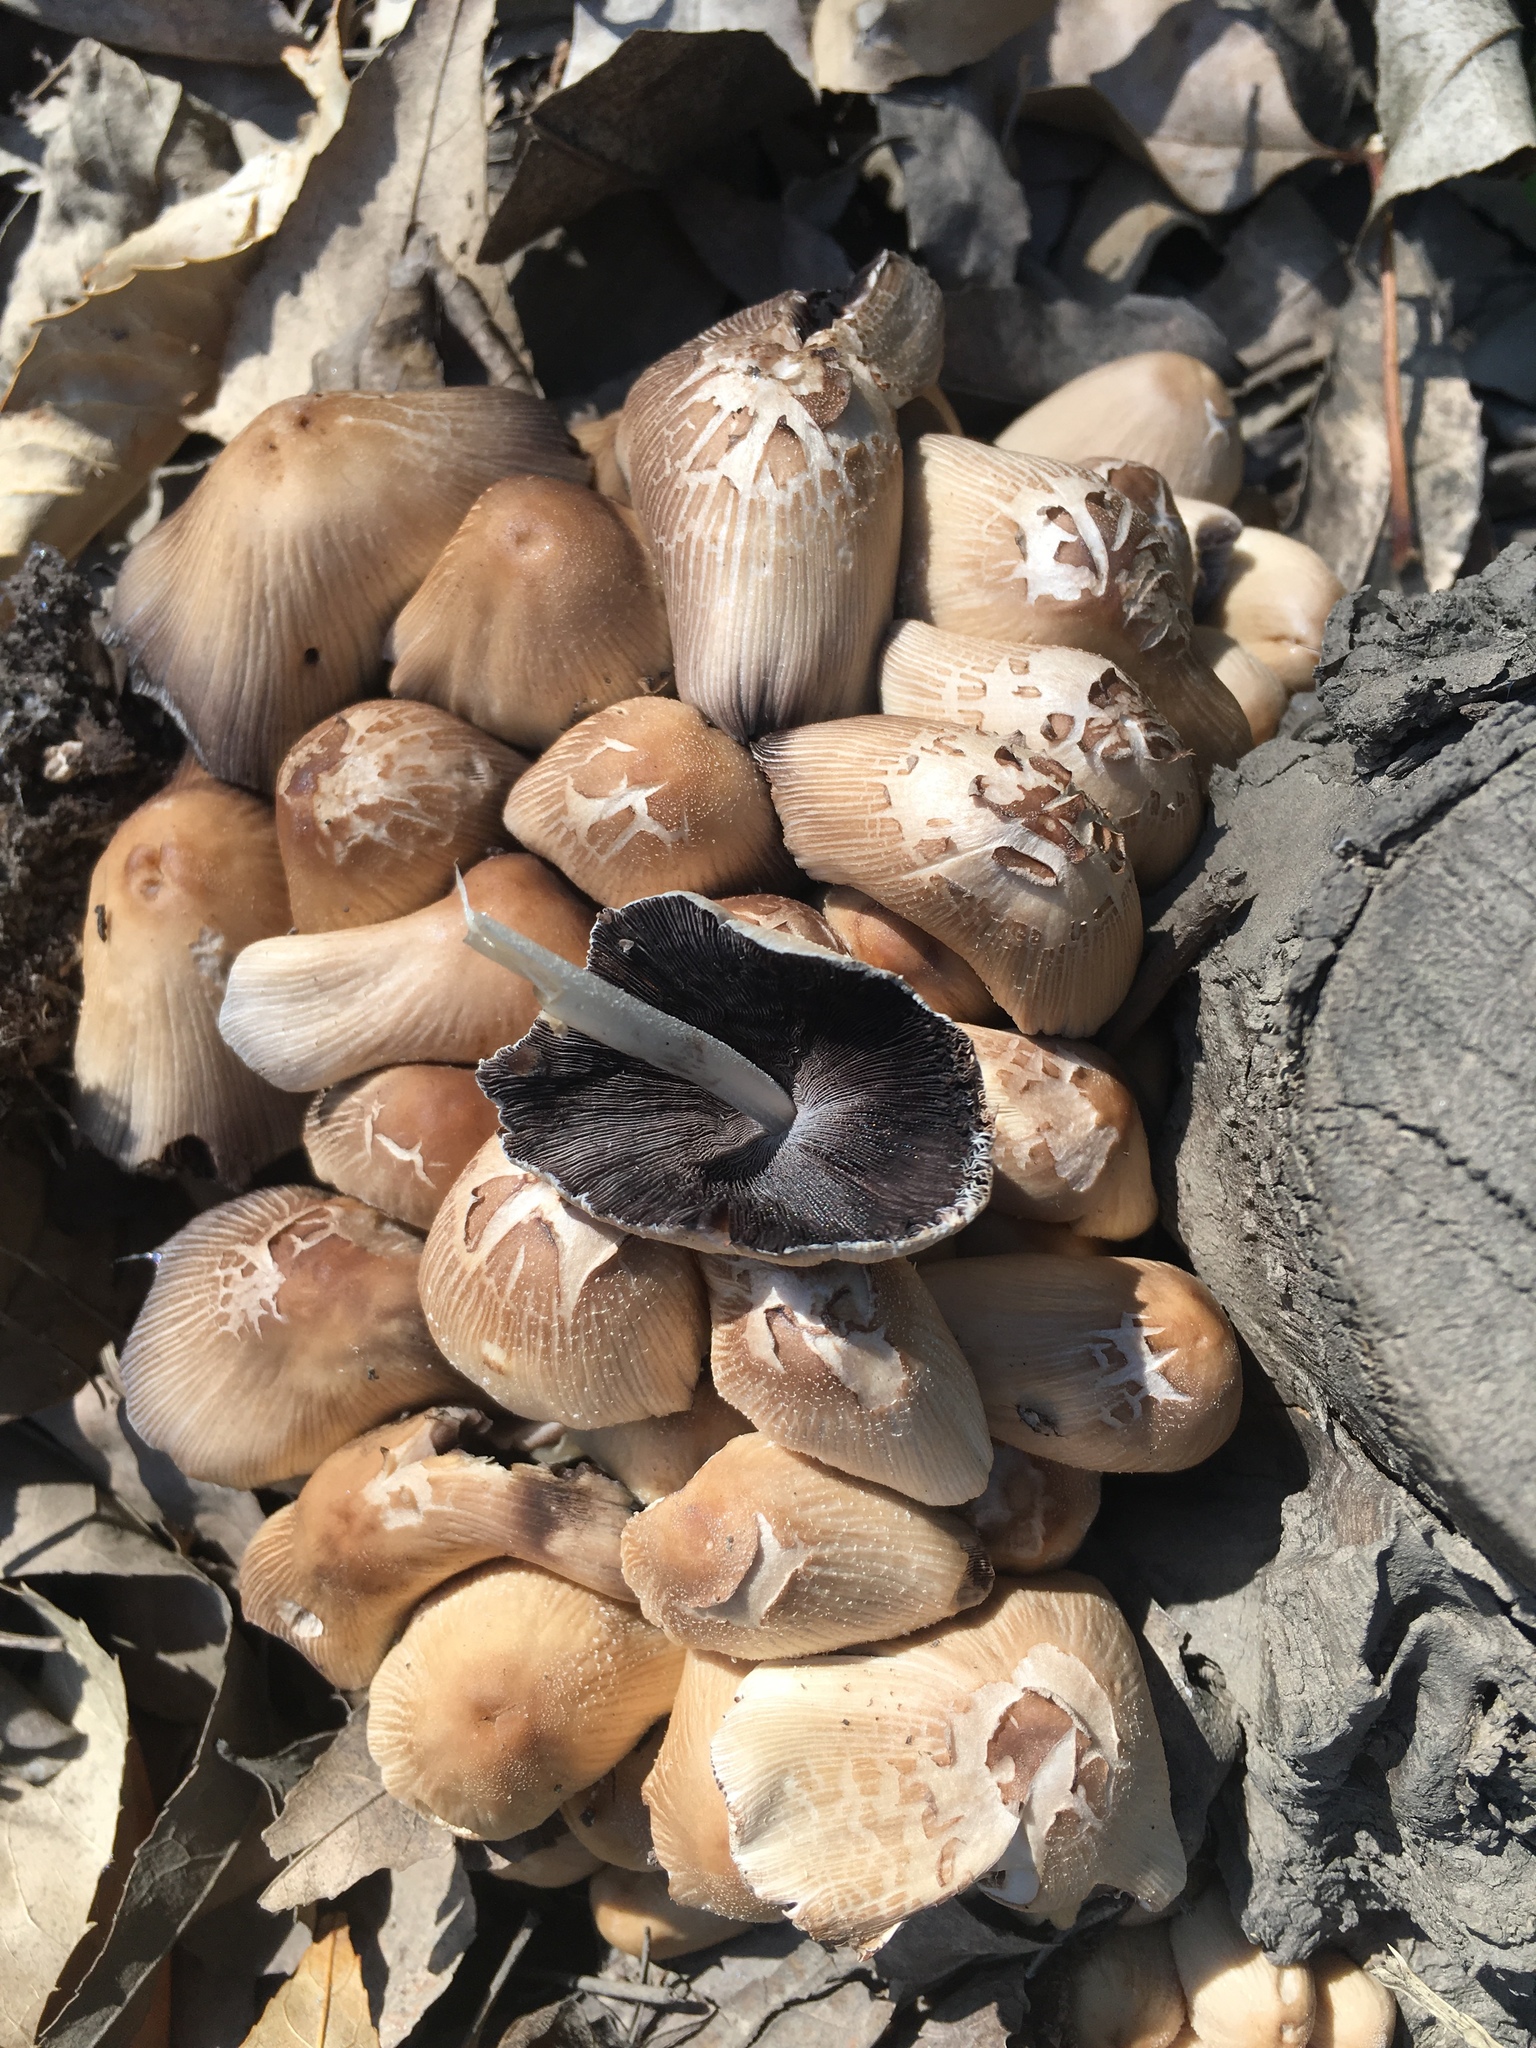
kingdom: Fungi
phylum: Basidiomycota
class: Agaricomycetes
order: Agaricales
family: Psathyrellaceae
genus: Coprinellus
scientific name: Coprinellus micaceus
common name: Glistening ink-cap
